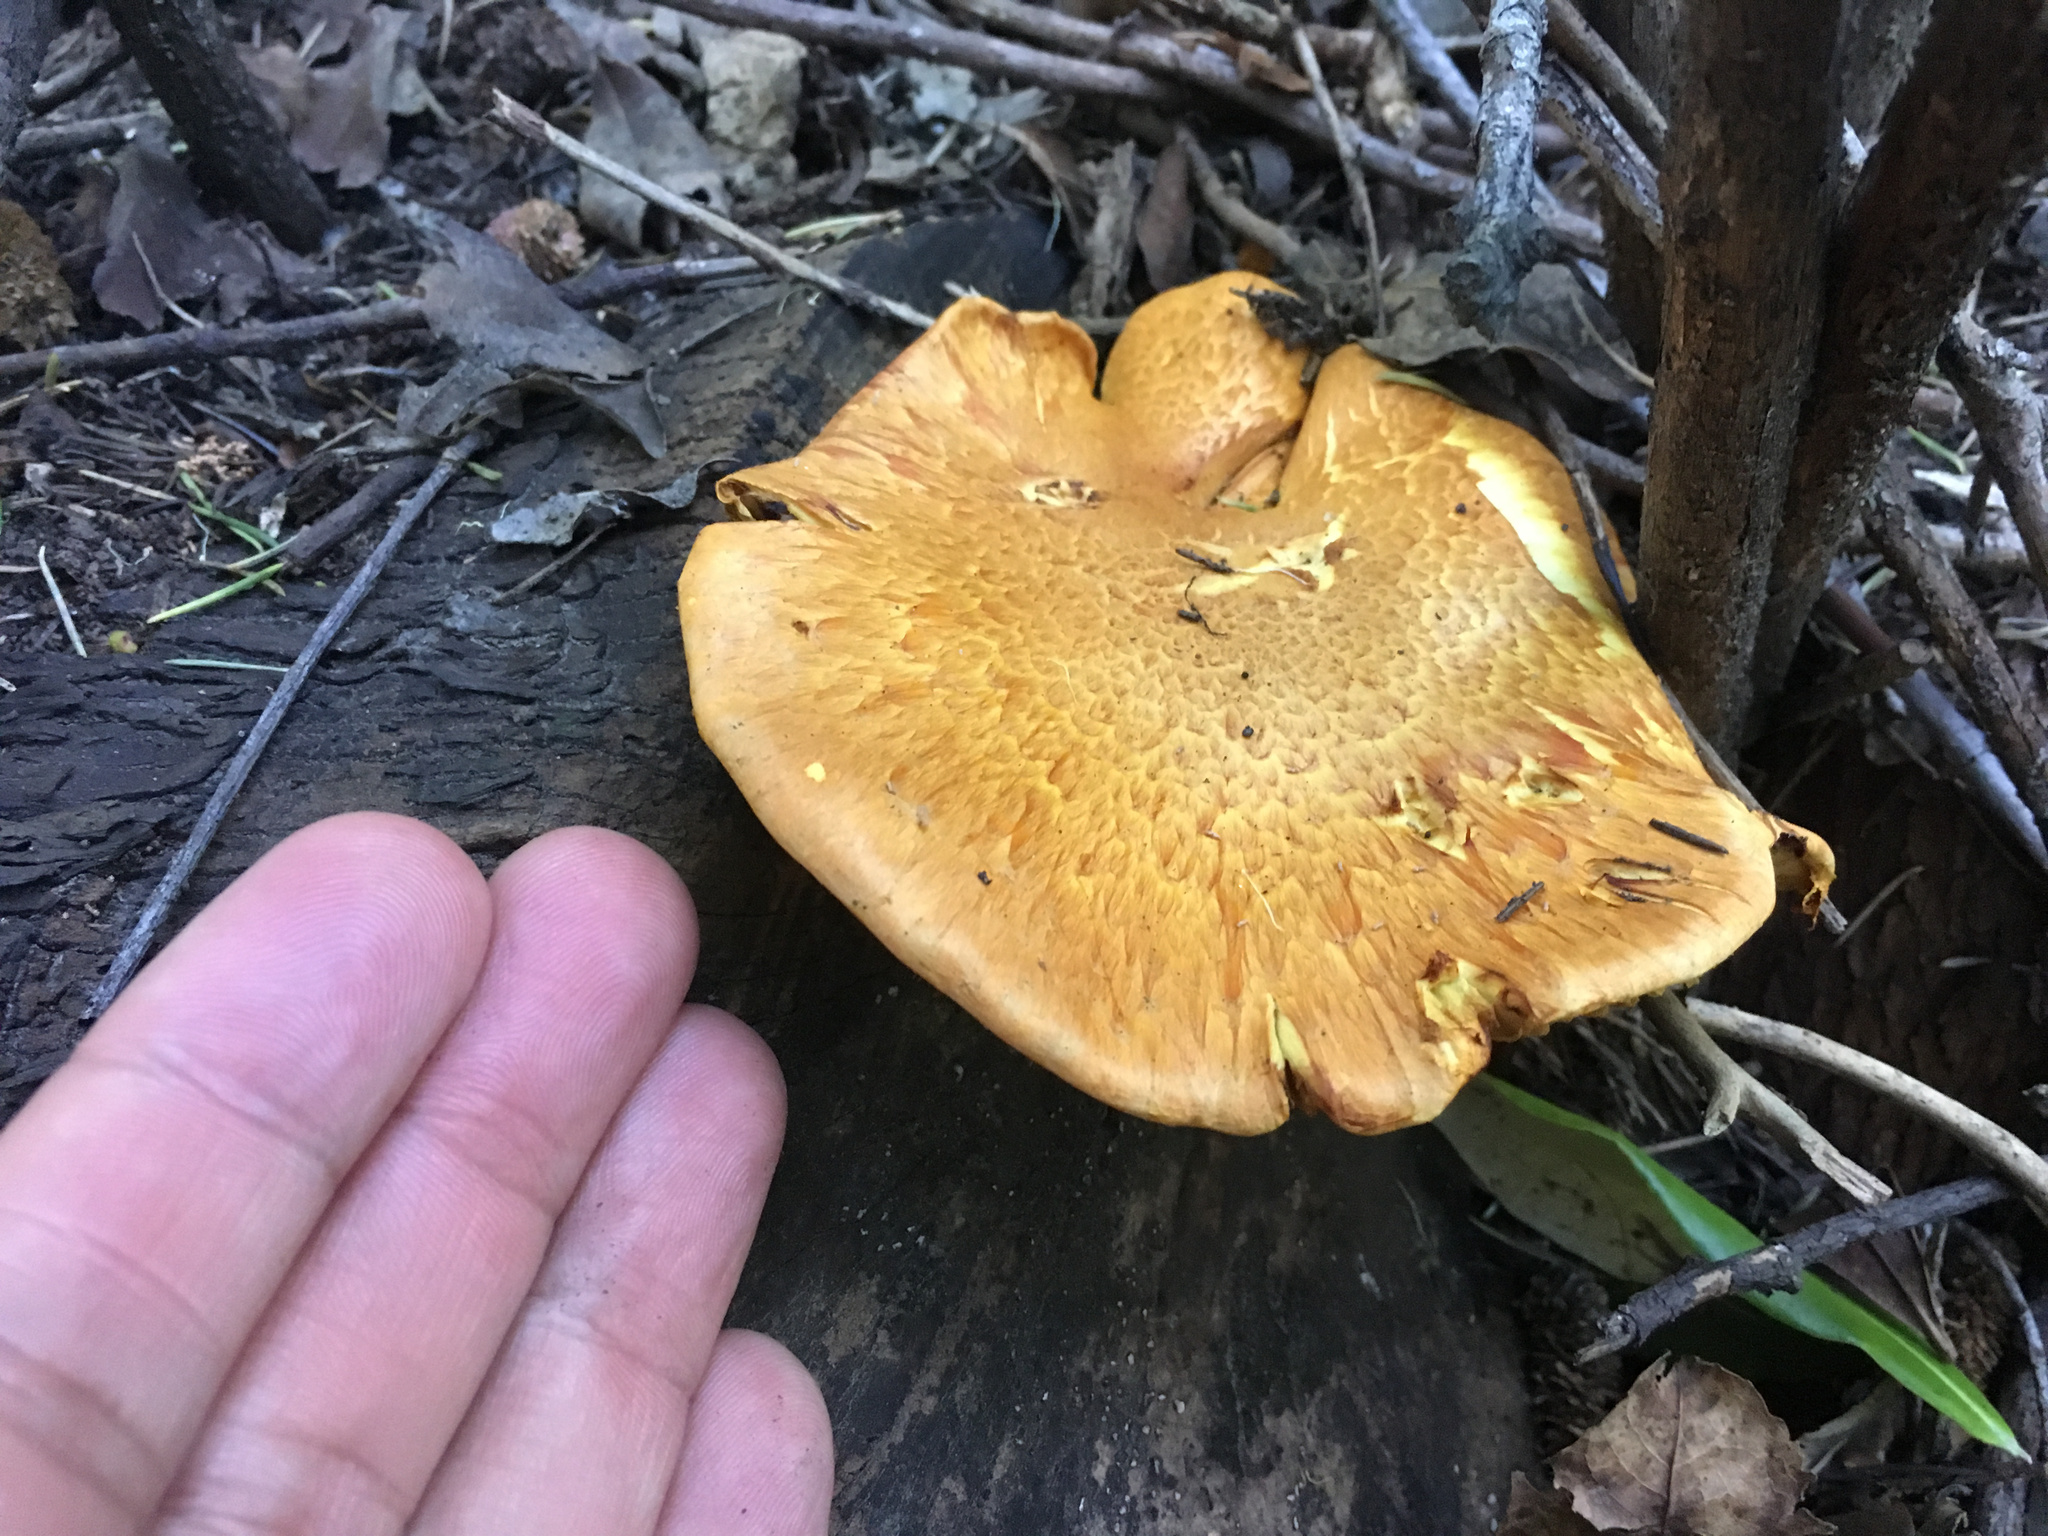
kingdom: Fungi
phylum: Basidiomycota
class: Agaricomycetes
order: Agaricales
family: Hymenogastraceae
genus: Gymnopilus
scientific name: Gymnopilus junonius
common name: Spectacular rustgill
